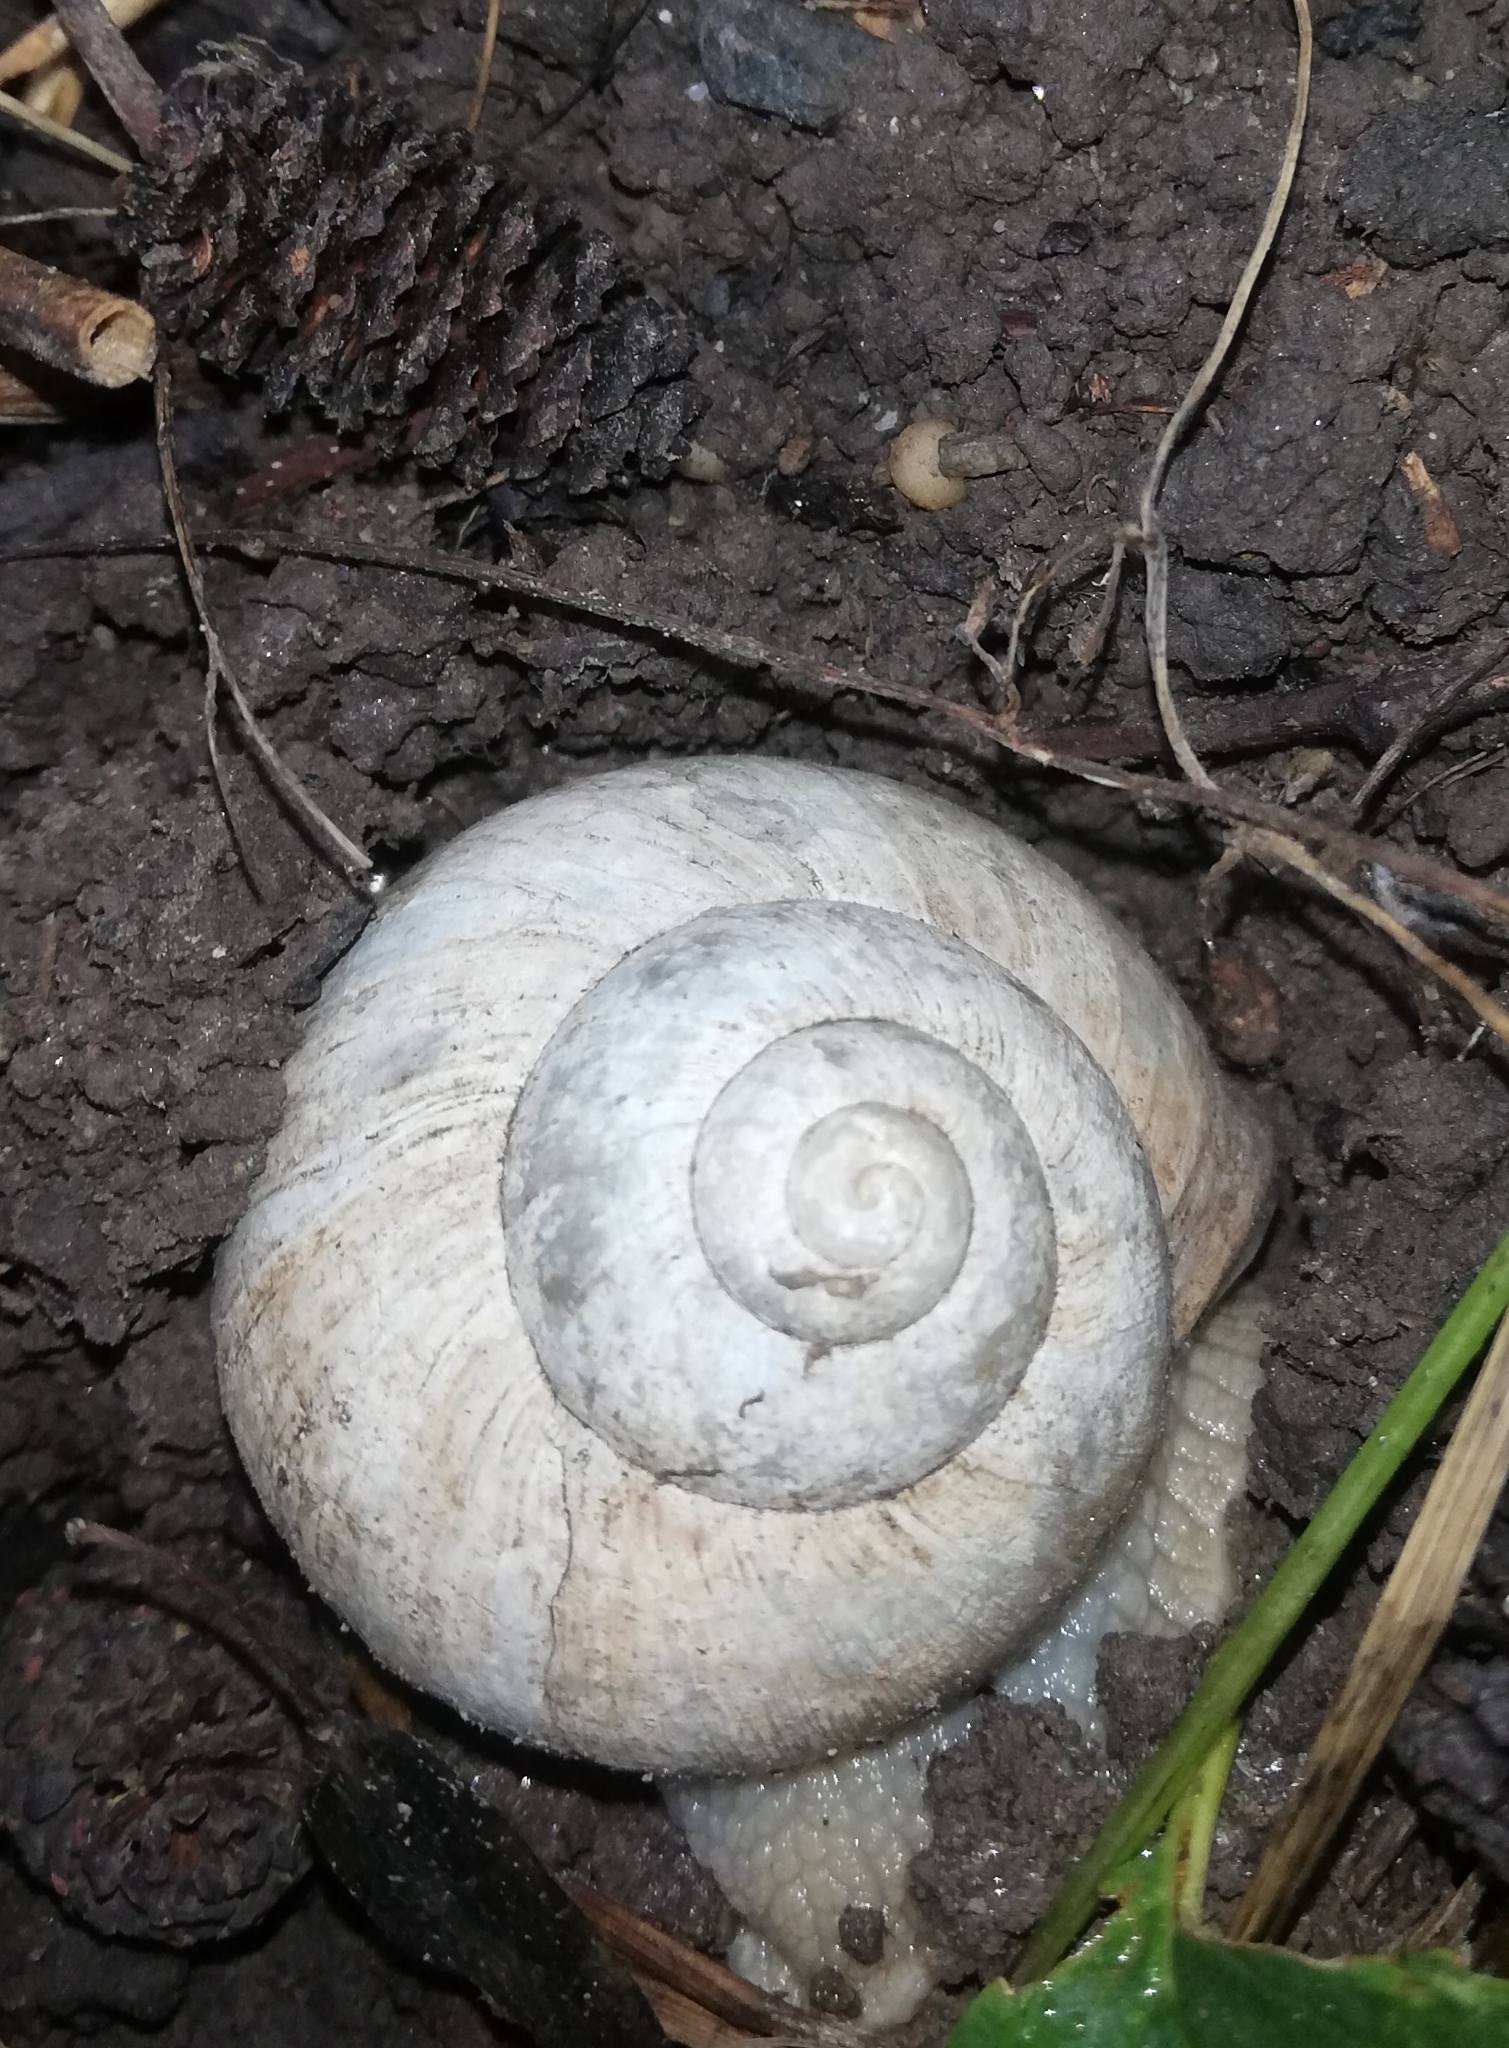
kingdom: Animalia
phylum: Mollusca
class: Gastropoda
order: Stylommatophora
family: Helicidae
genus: Helix
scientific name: Helix pomatia
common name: Roman snail
